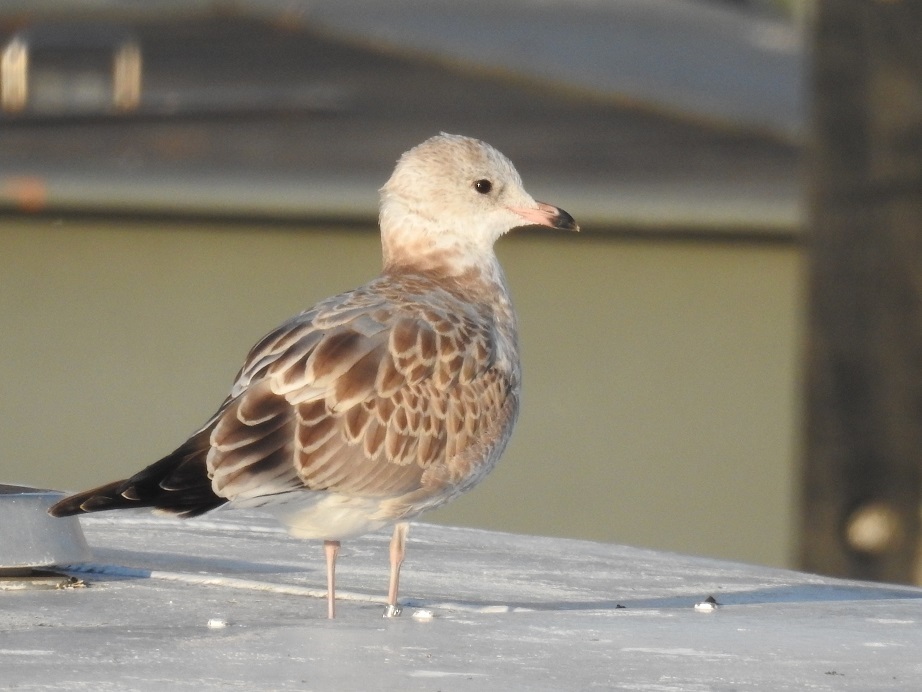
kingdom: Animalia
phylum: Chordata
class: Aves
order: Charadriiformes
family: Laridae
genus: Larus
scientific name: Larus canus
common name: Mew gull
